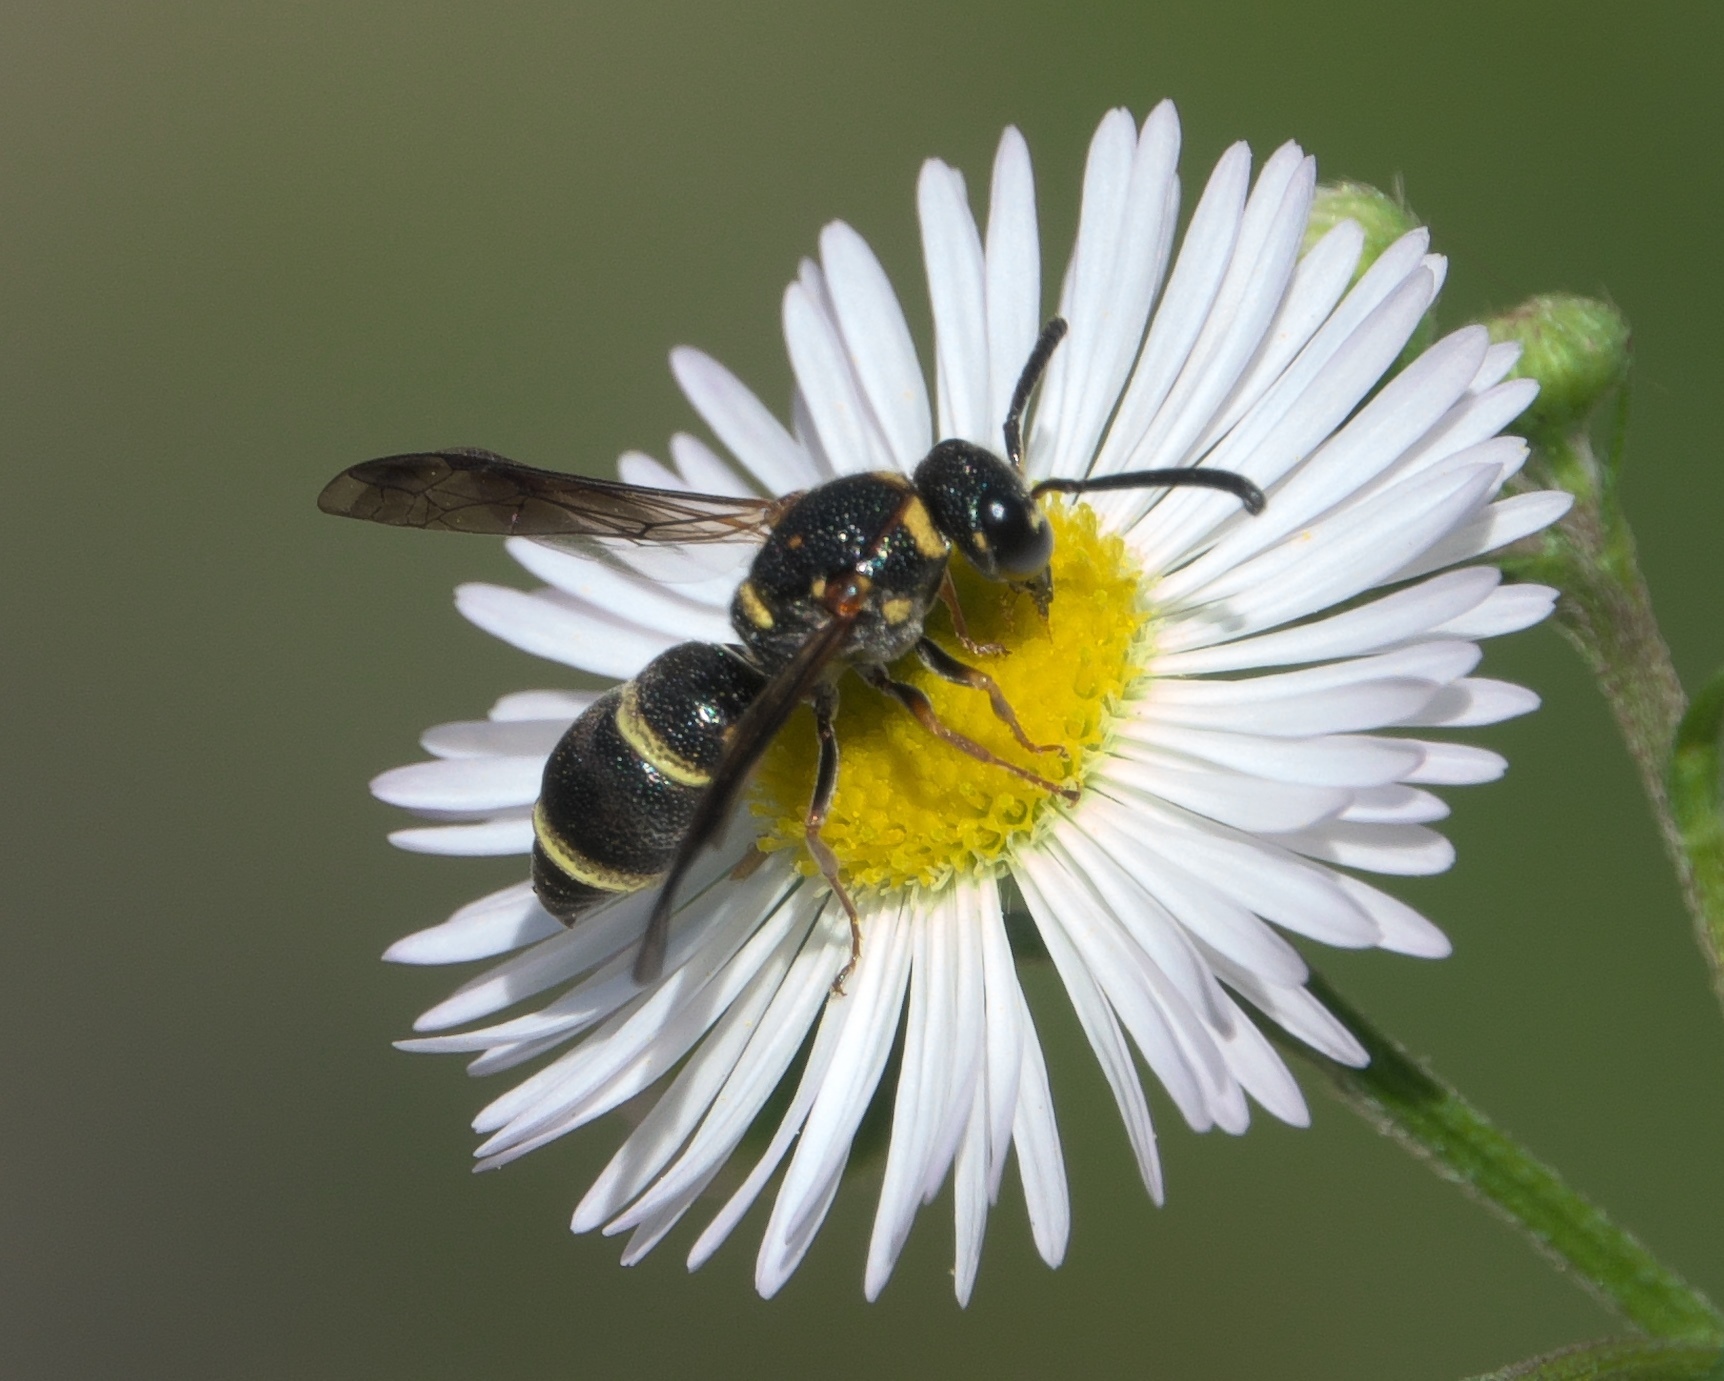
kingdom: Animalia
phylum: Arthropoda
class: Insecta
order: Hymenoptera
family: Eumenidae
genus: Parancistrocerus
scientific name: Parancistrocerus fulvipes
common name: Potter wasp
